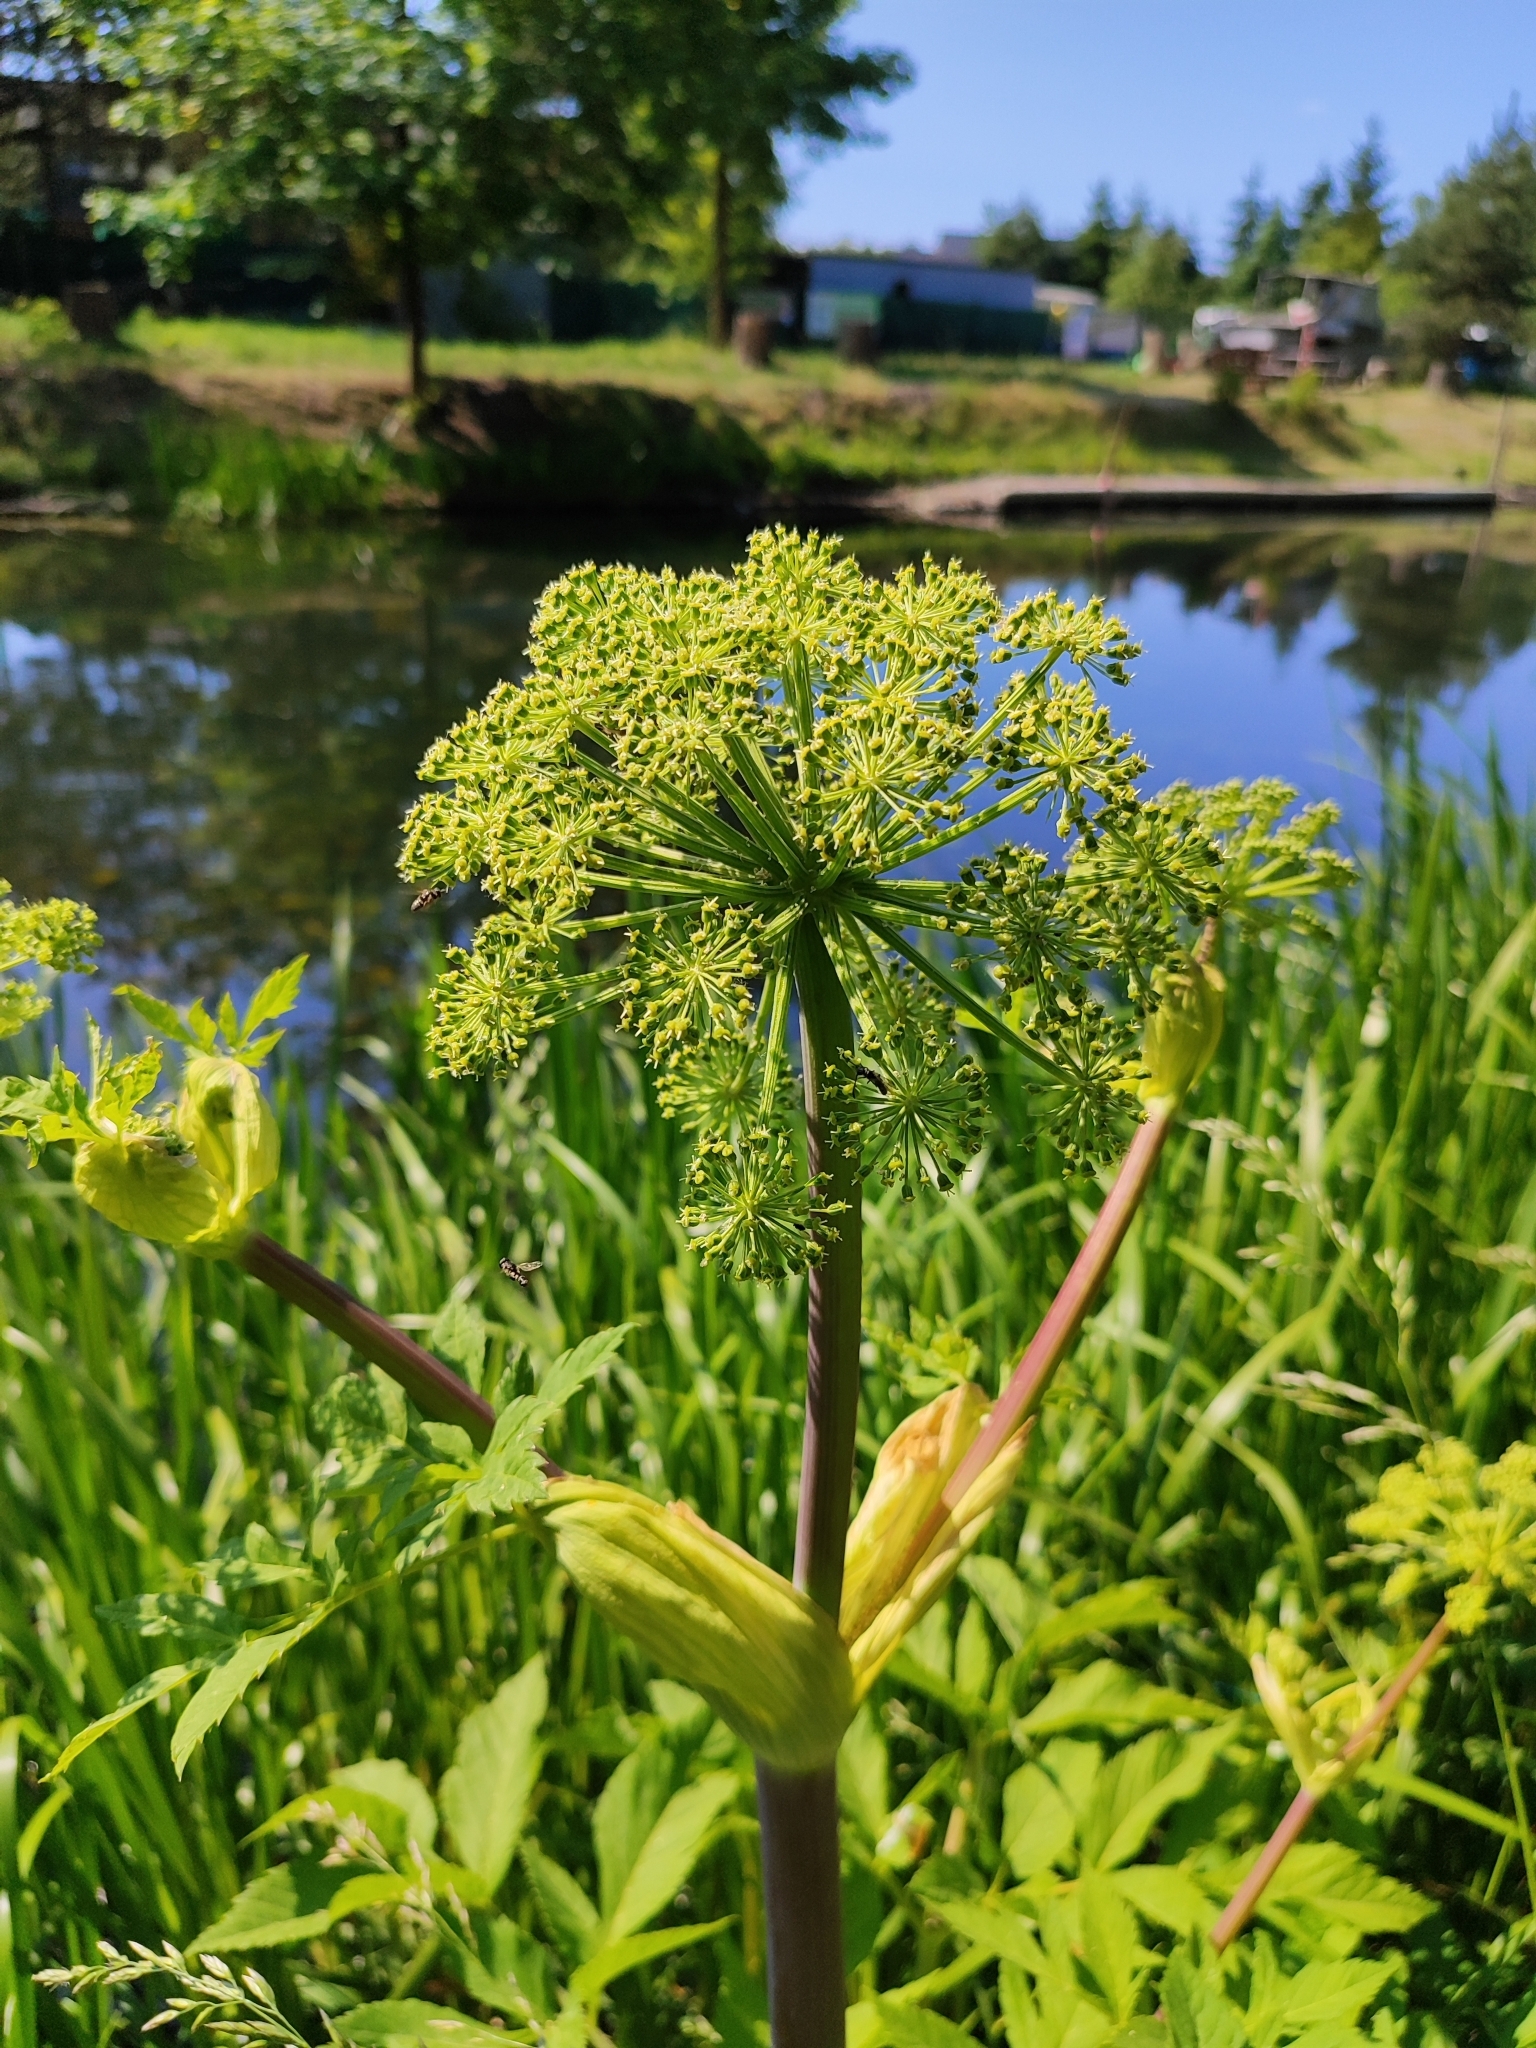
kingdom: Plantae
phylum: Tracheophyta
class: Magnoliopsida
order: Apiales
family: Apiaceae
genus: Angelica
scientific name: Angelica archangelica
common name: Garden angelica
